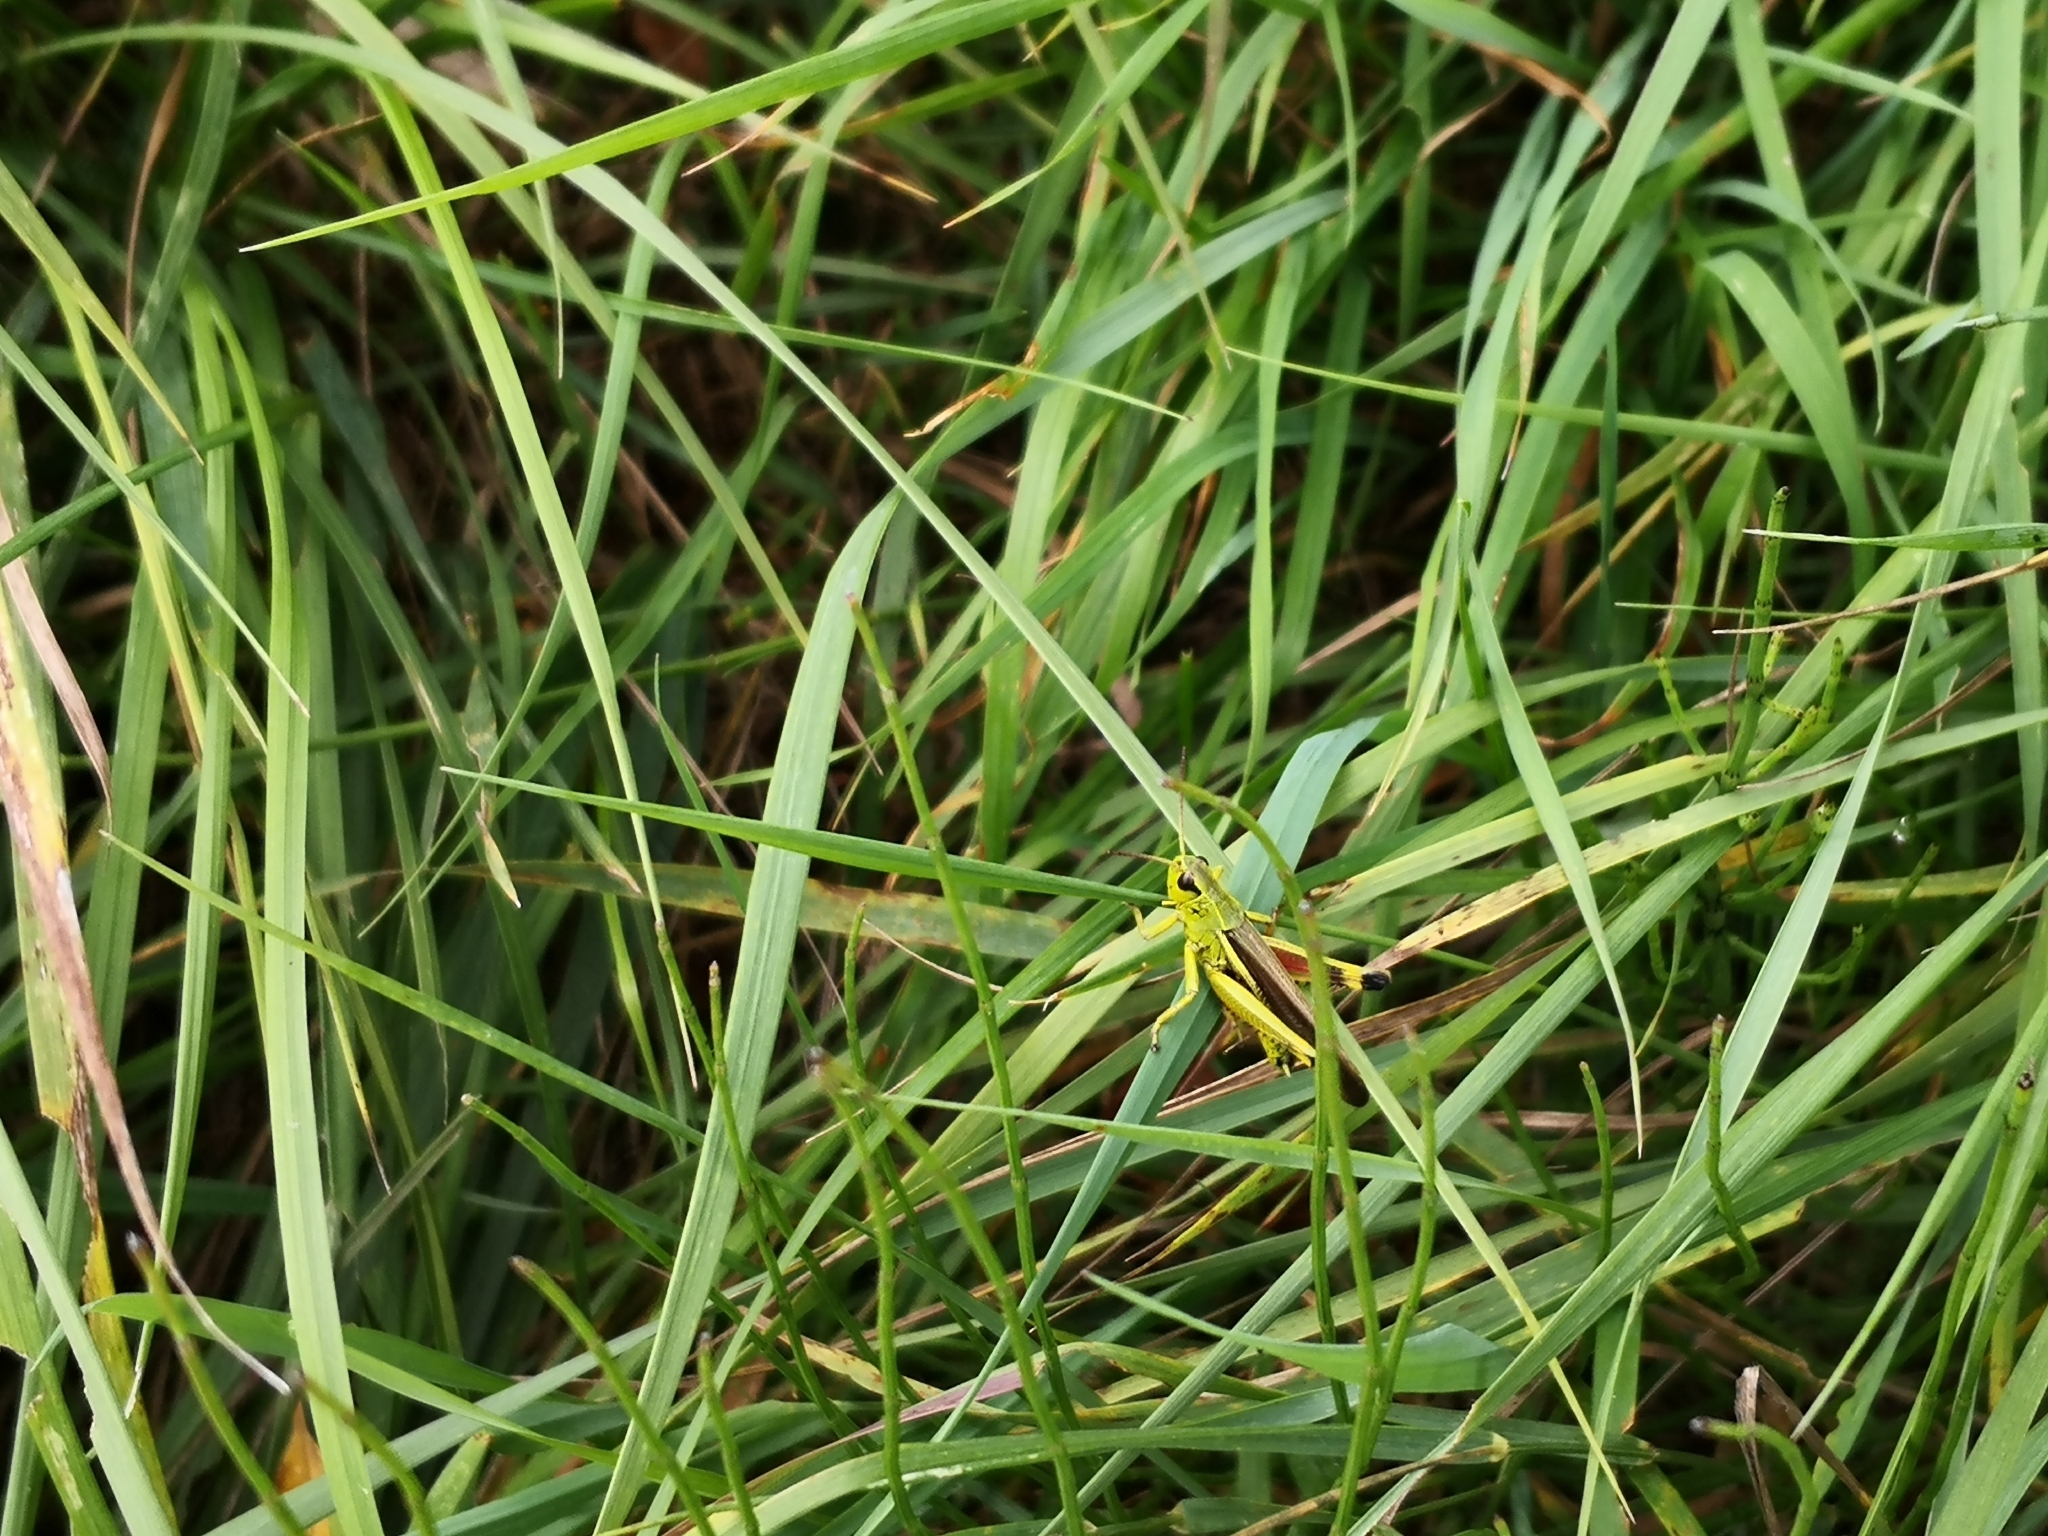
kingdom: Animalia
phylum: Arthropoda
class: Insecta
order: Orthoptera
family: Acrididae
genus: Stethophyma
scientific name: Stethophyma grossum
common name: Large marsh grasshopper
